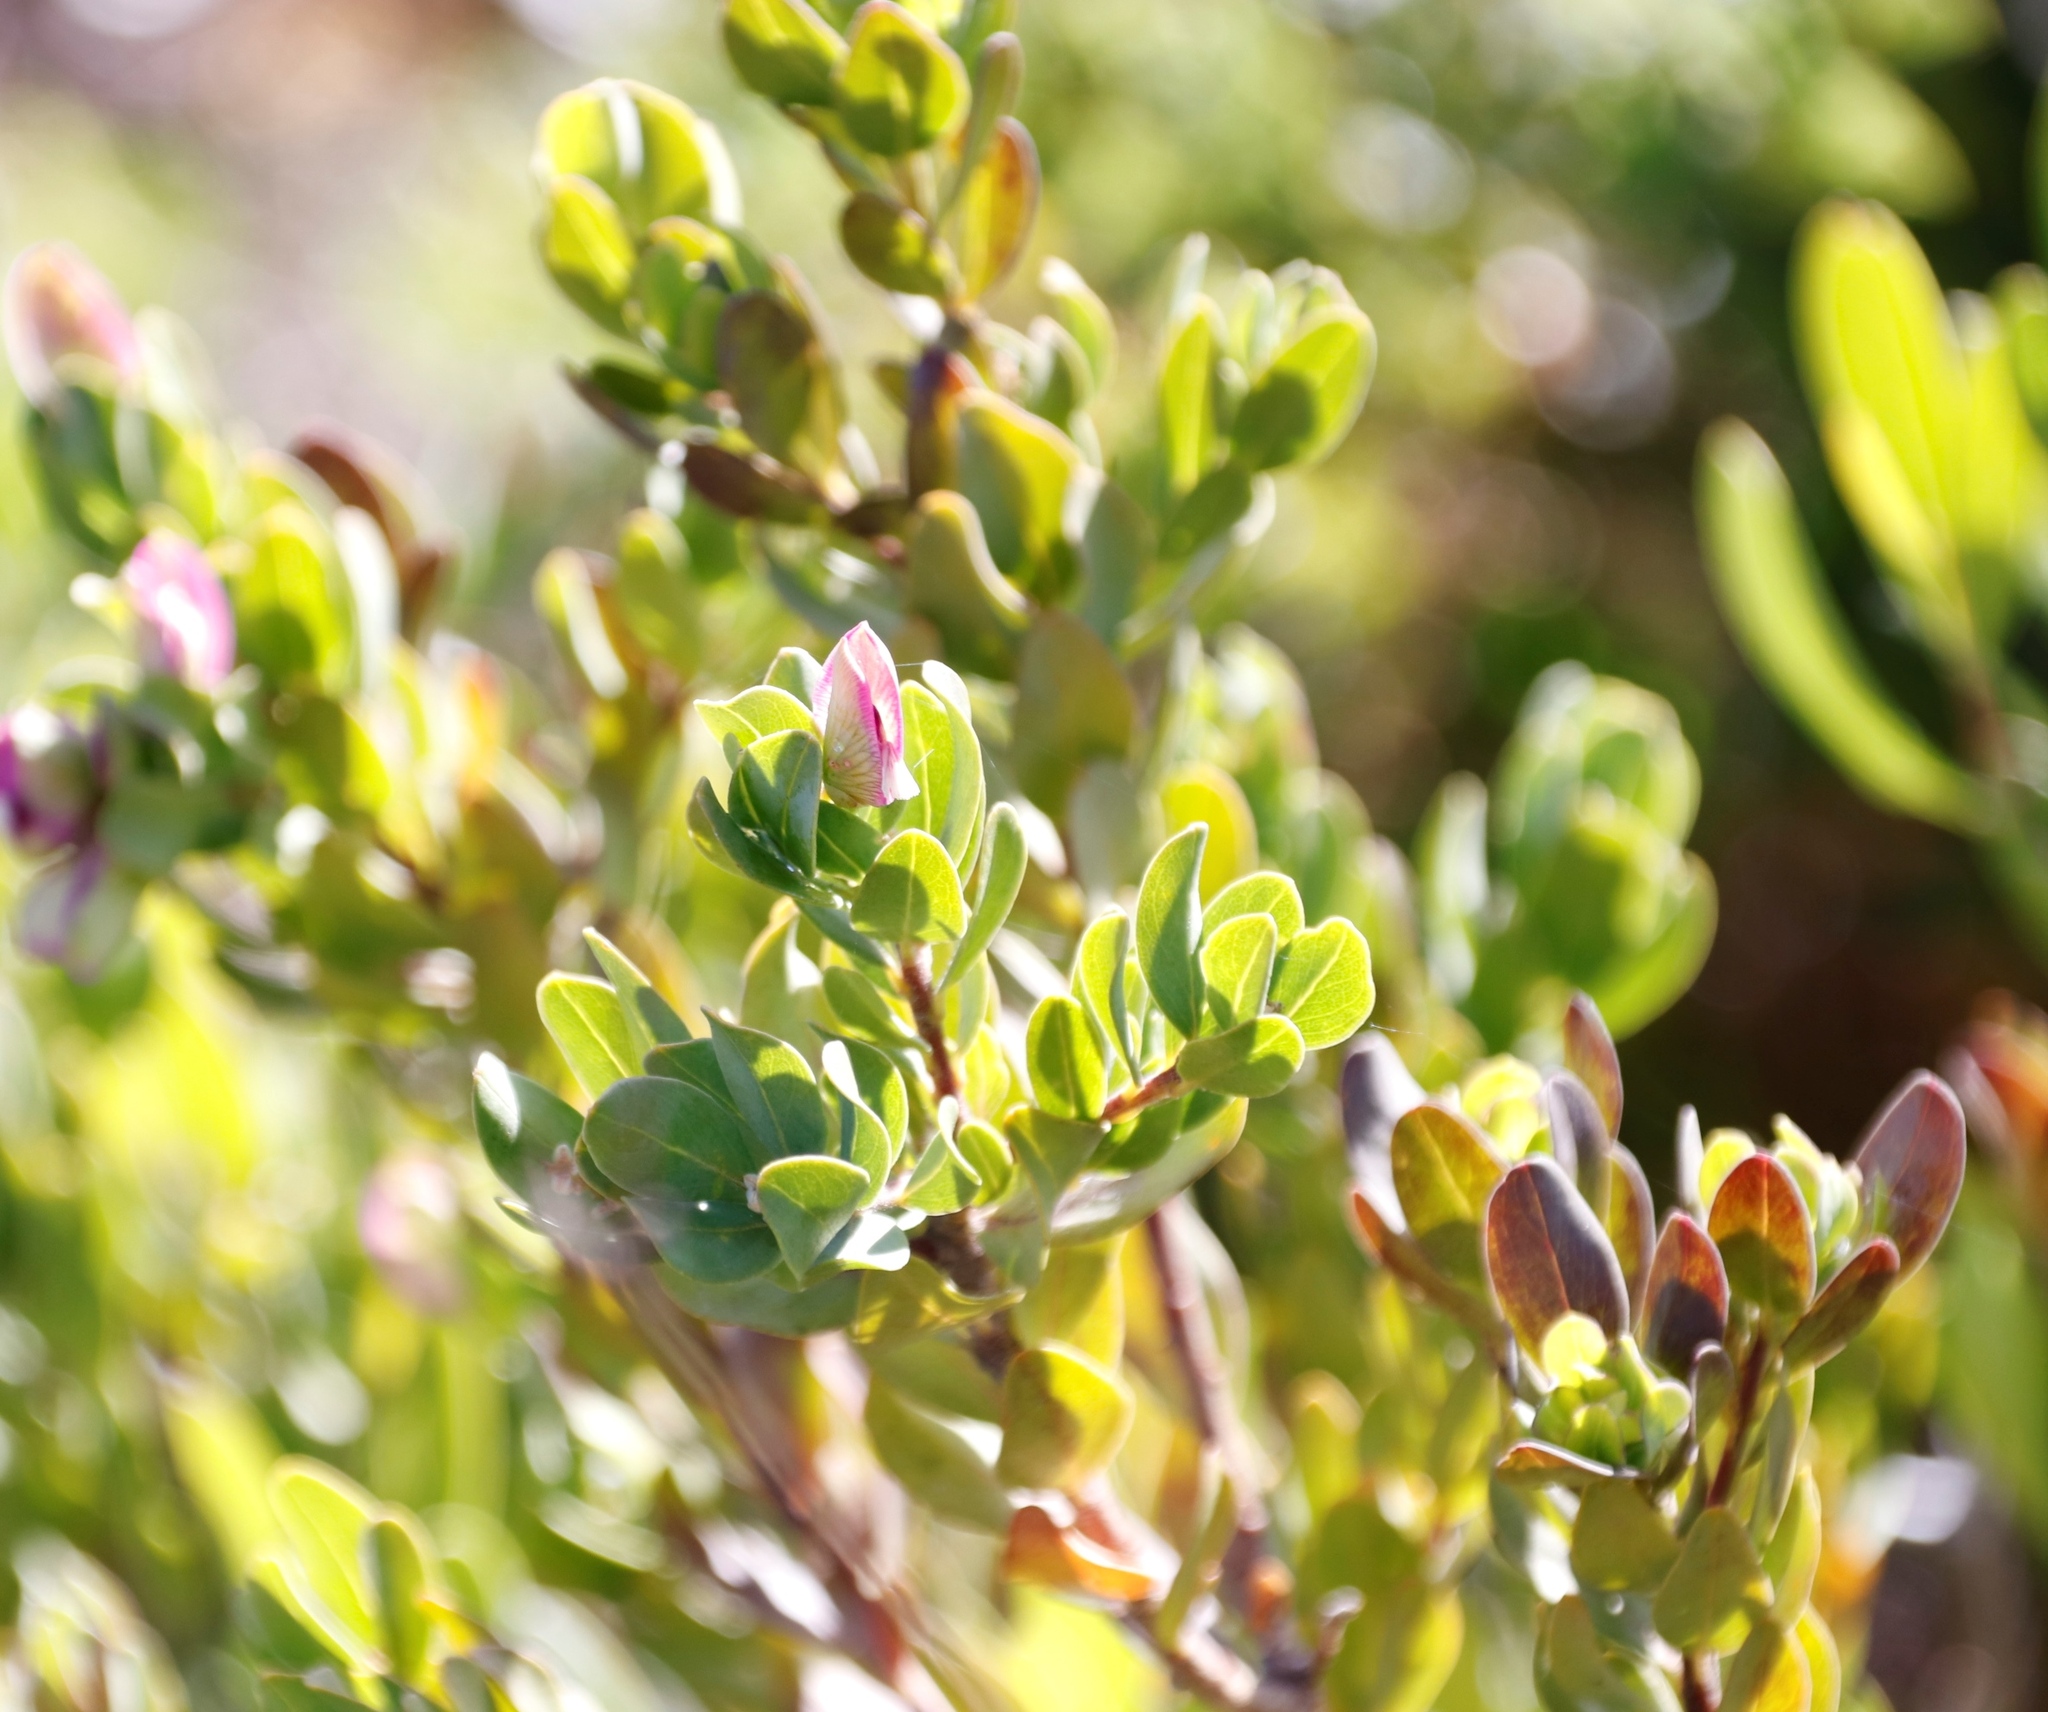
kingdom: Plantae
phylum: Tracheophyta
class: Magnoliopsida
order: Fabales
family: Polygalaceae
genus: Polygala
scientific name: Polygala myrtifolia
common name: Myrtle-leaf milkwort
